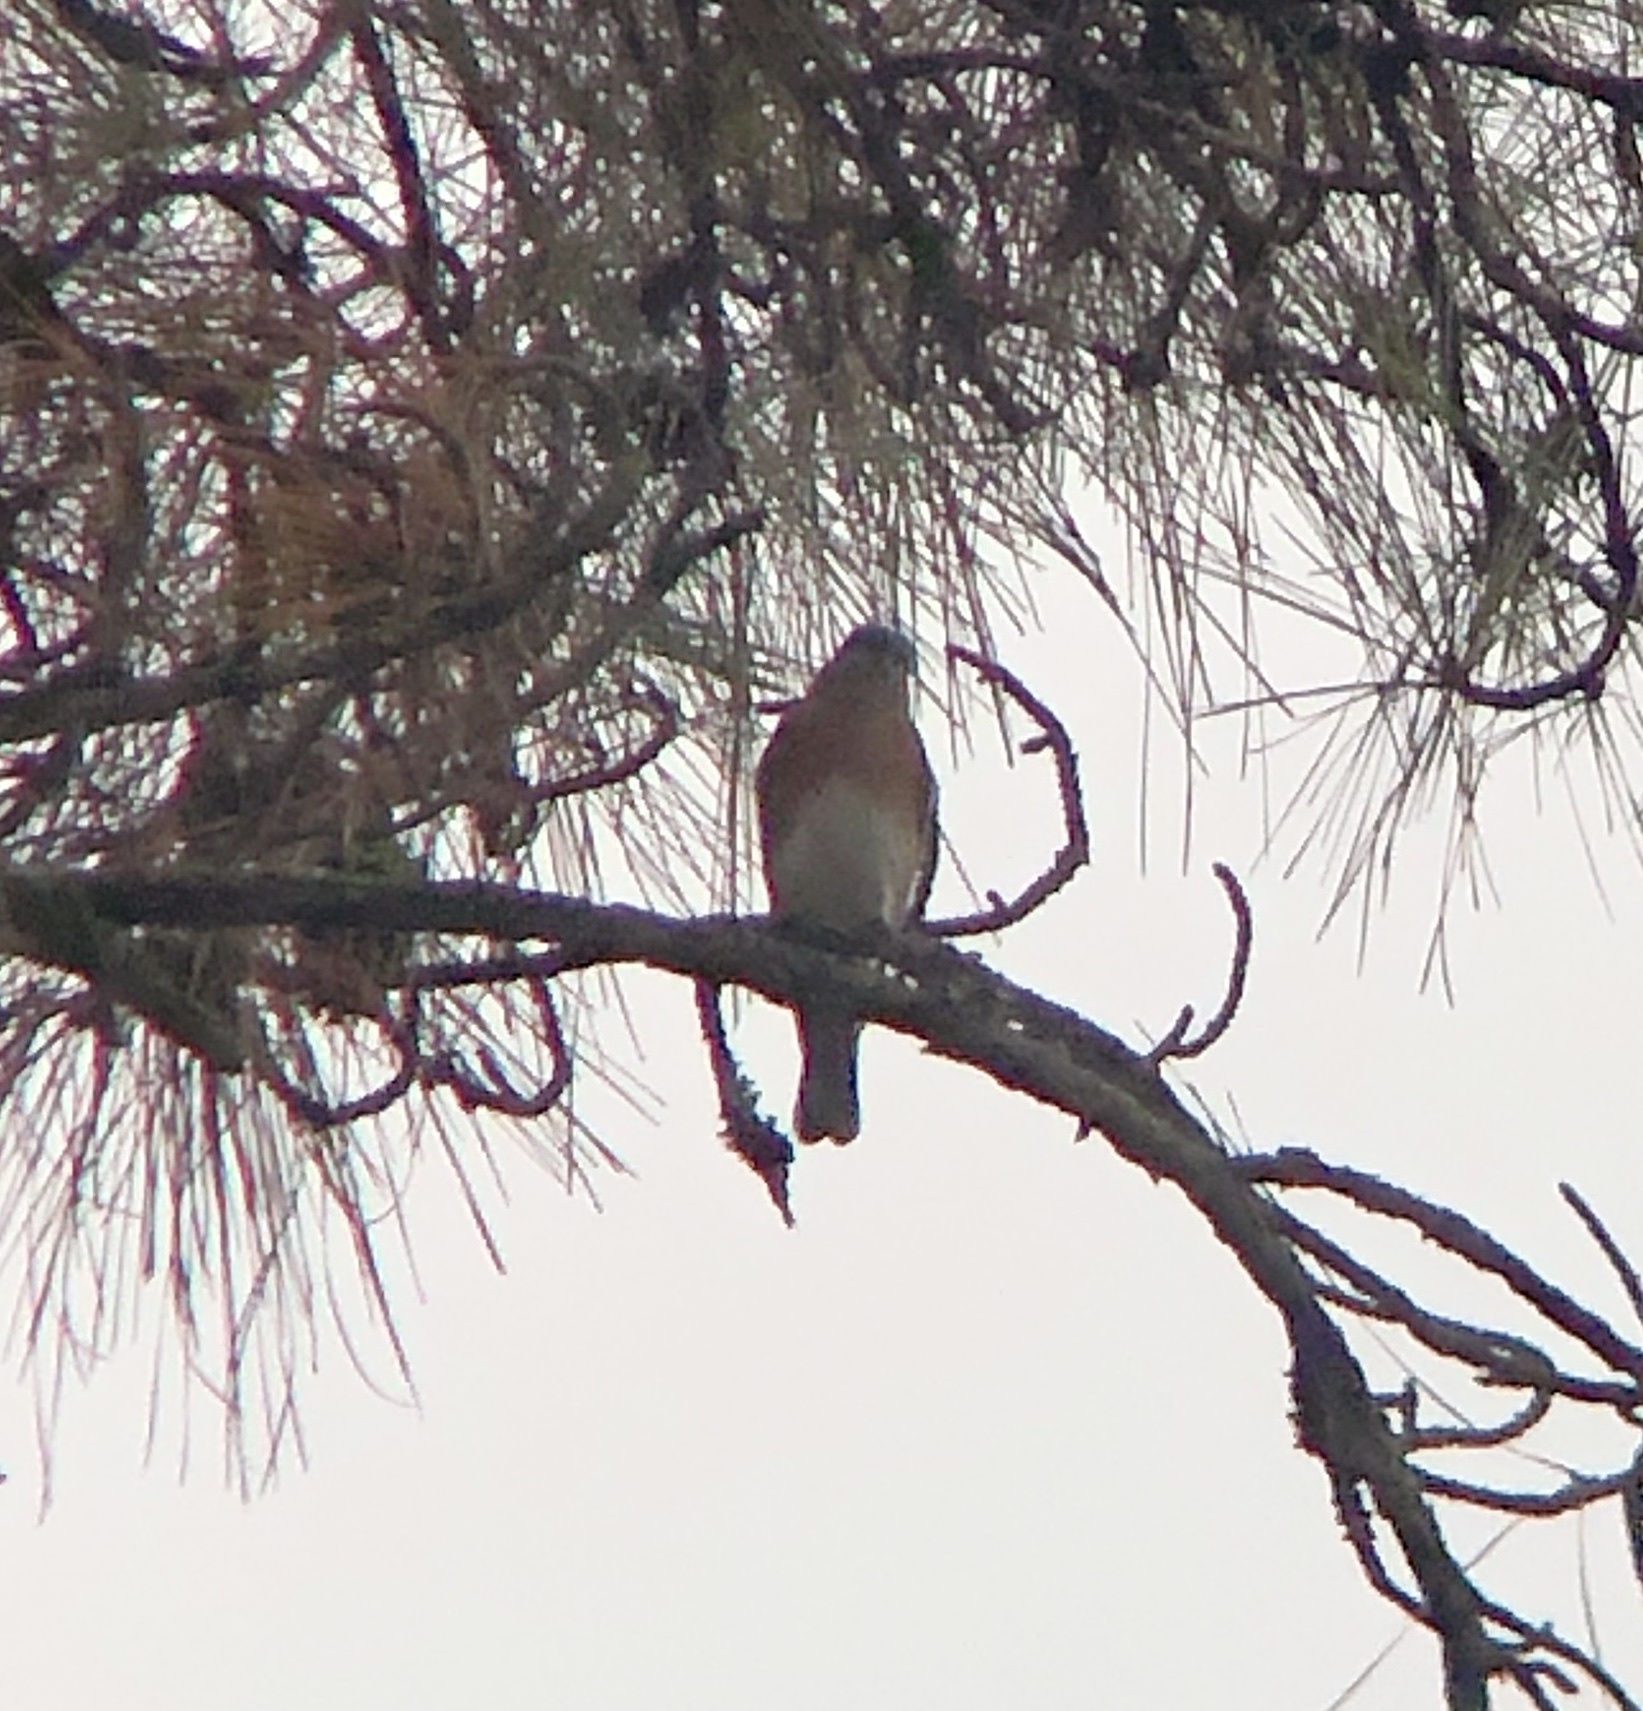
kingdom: Animalia
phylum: Chordata
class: Aves
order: Passeriformes
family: Turdidae
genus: Sialia
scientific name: Sialia sialis
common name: Eastern bluebird
